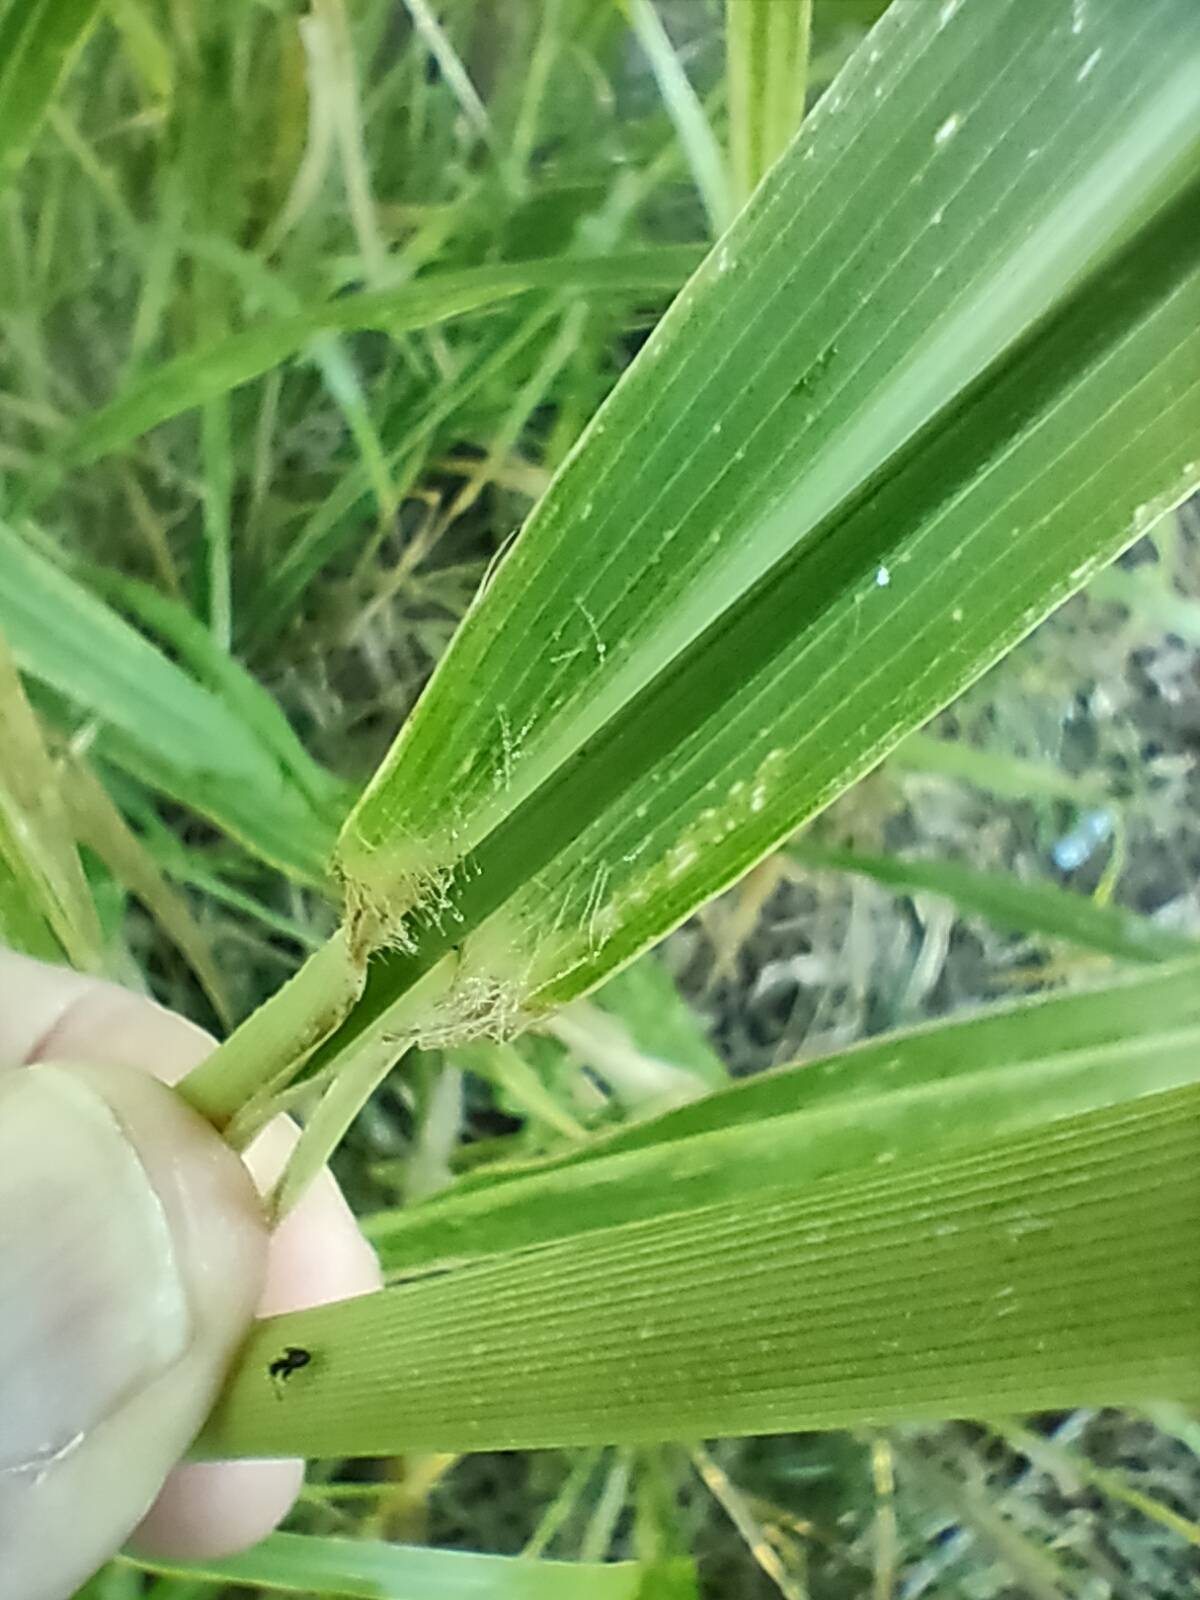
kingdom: Plantae
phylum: Tracheophyta
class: Liliopsida
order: Poales
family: Poaceae
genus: Megathyrsus
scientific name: Megathyrsus maximus
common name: Guineagrass
